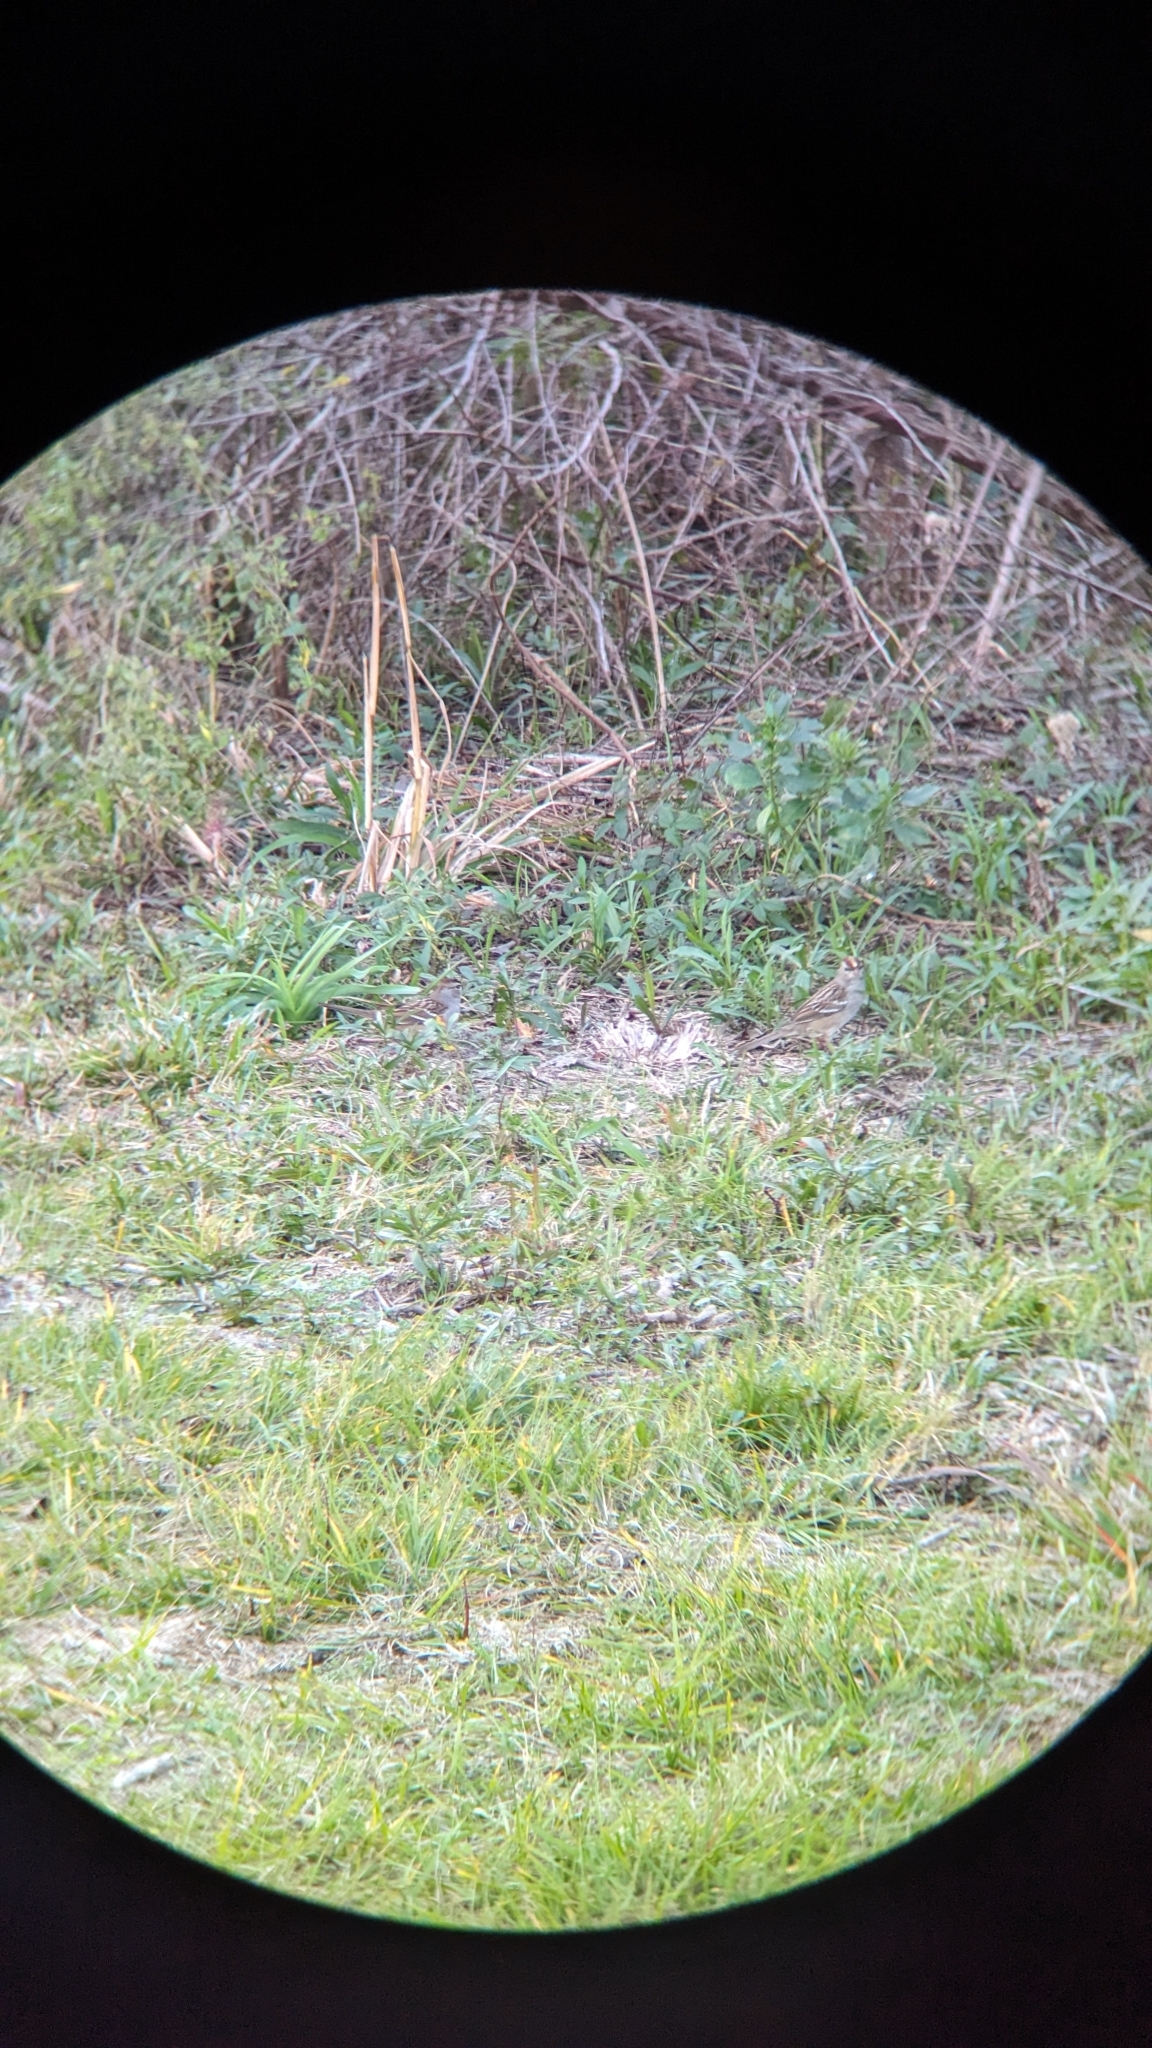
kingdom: Animalia
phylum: Chordata
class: Aves
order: Passeriformes
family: Passerellidae
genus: Zonotrichia
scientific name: Zonotrichia leucophrys
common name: White-crowned sparrow
